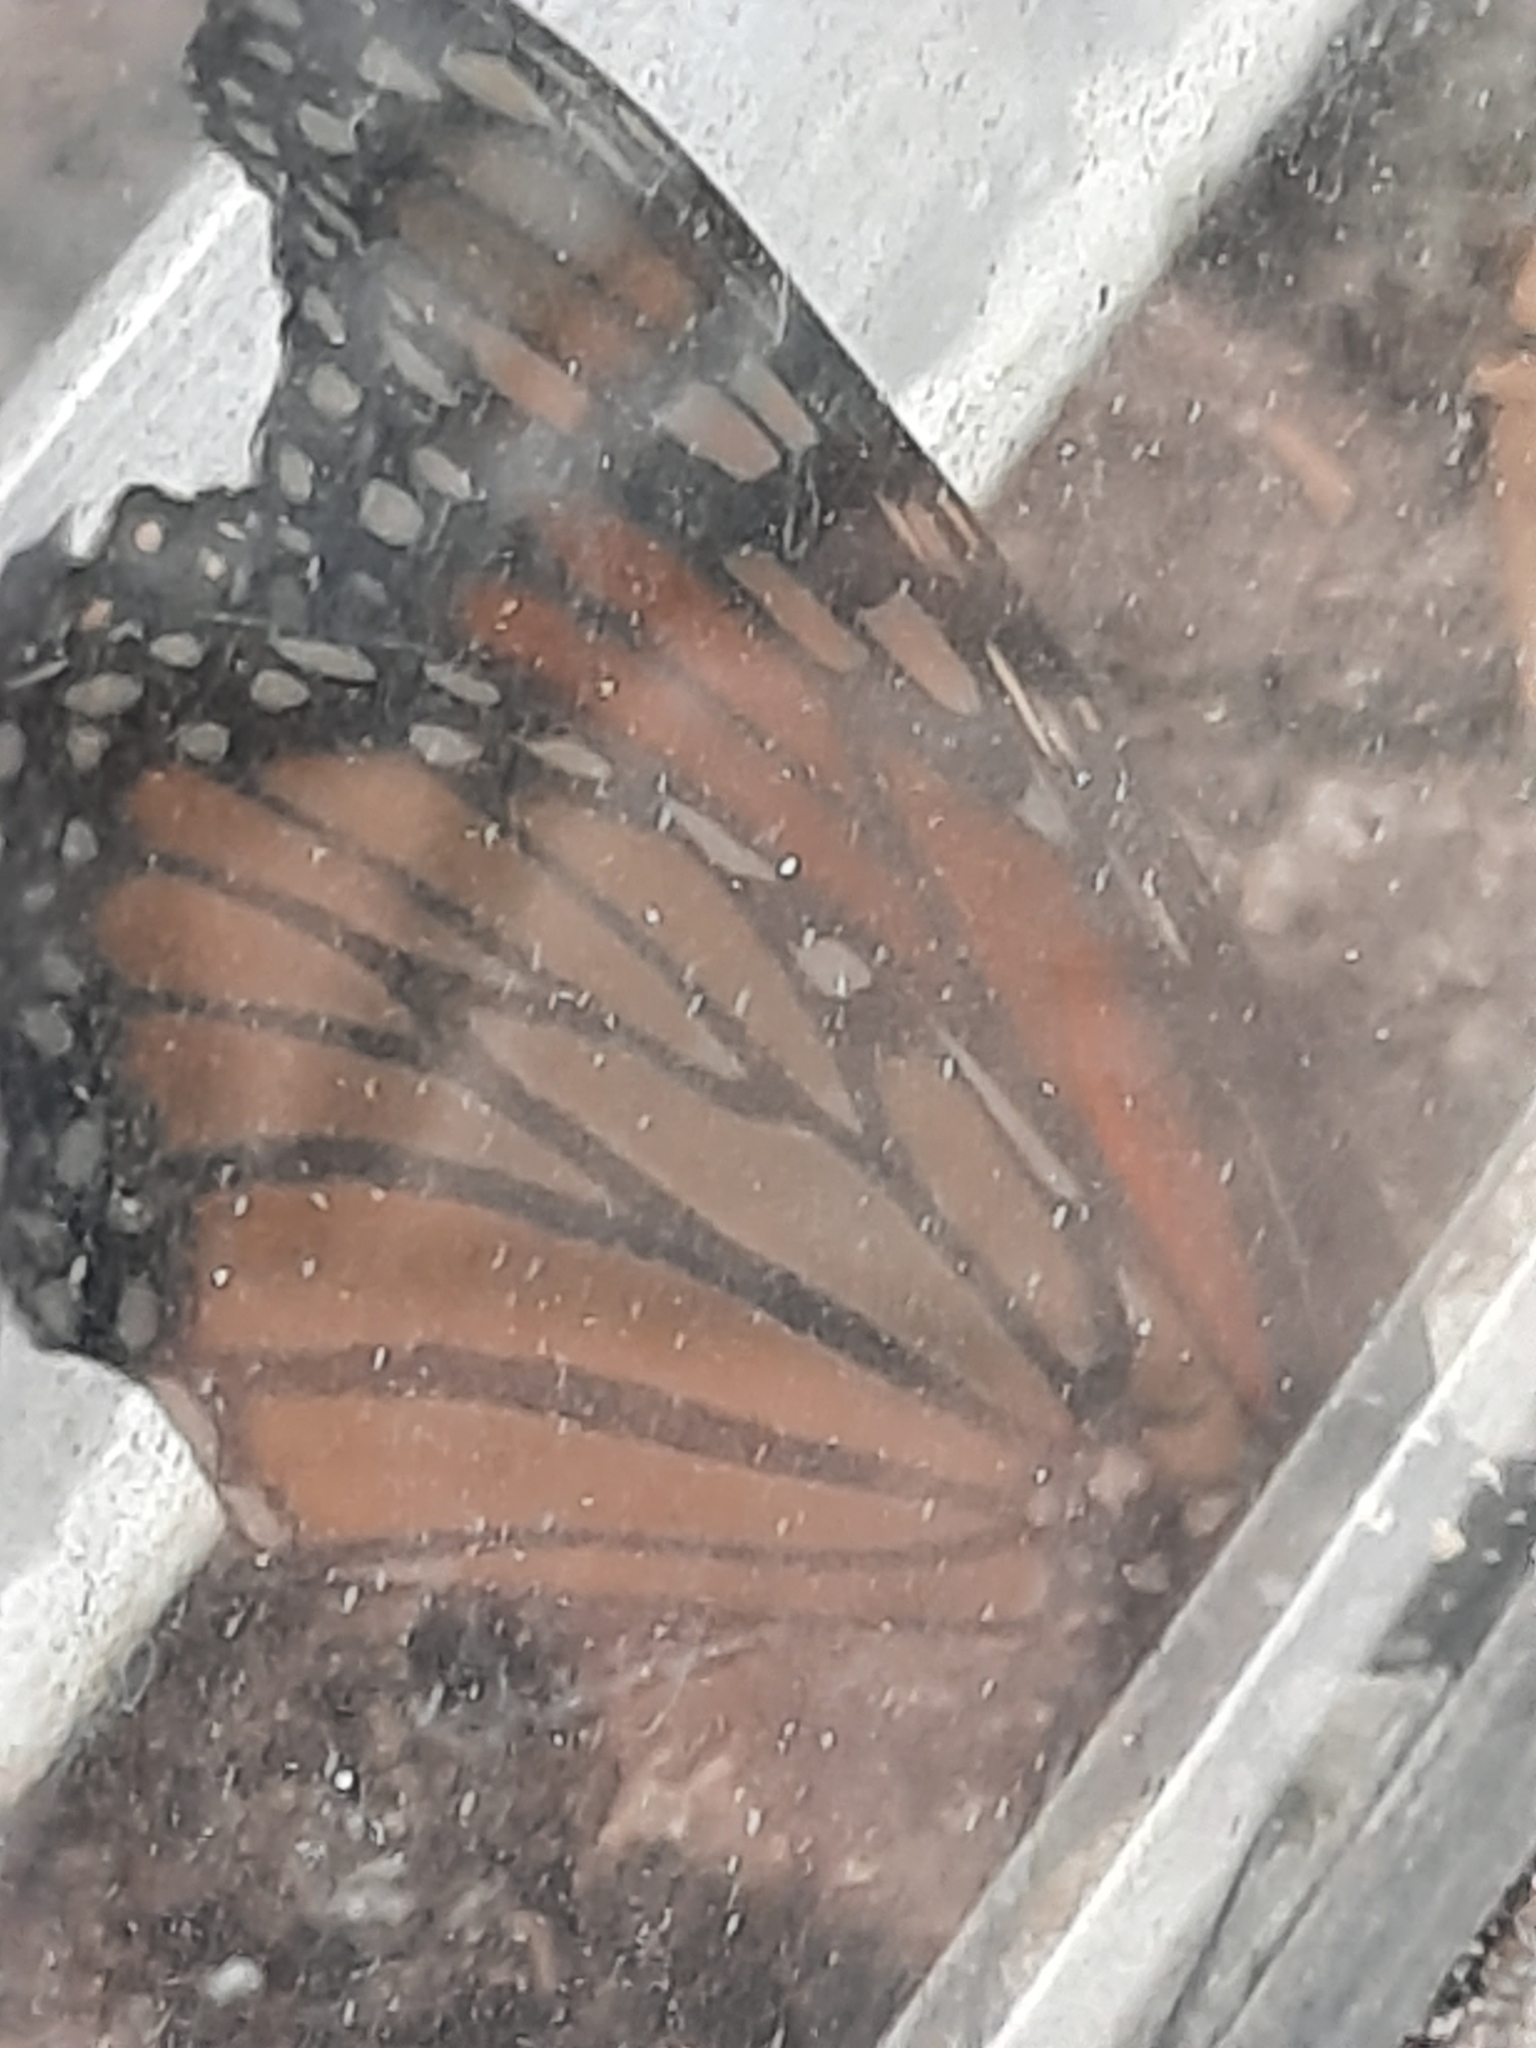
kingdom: Animalia
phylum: Arthropoda
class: Insecta
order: Lepidoptera
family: Nymphalidae
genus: Danaus
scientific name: Danaus plexippus
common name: Monarch
